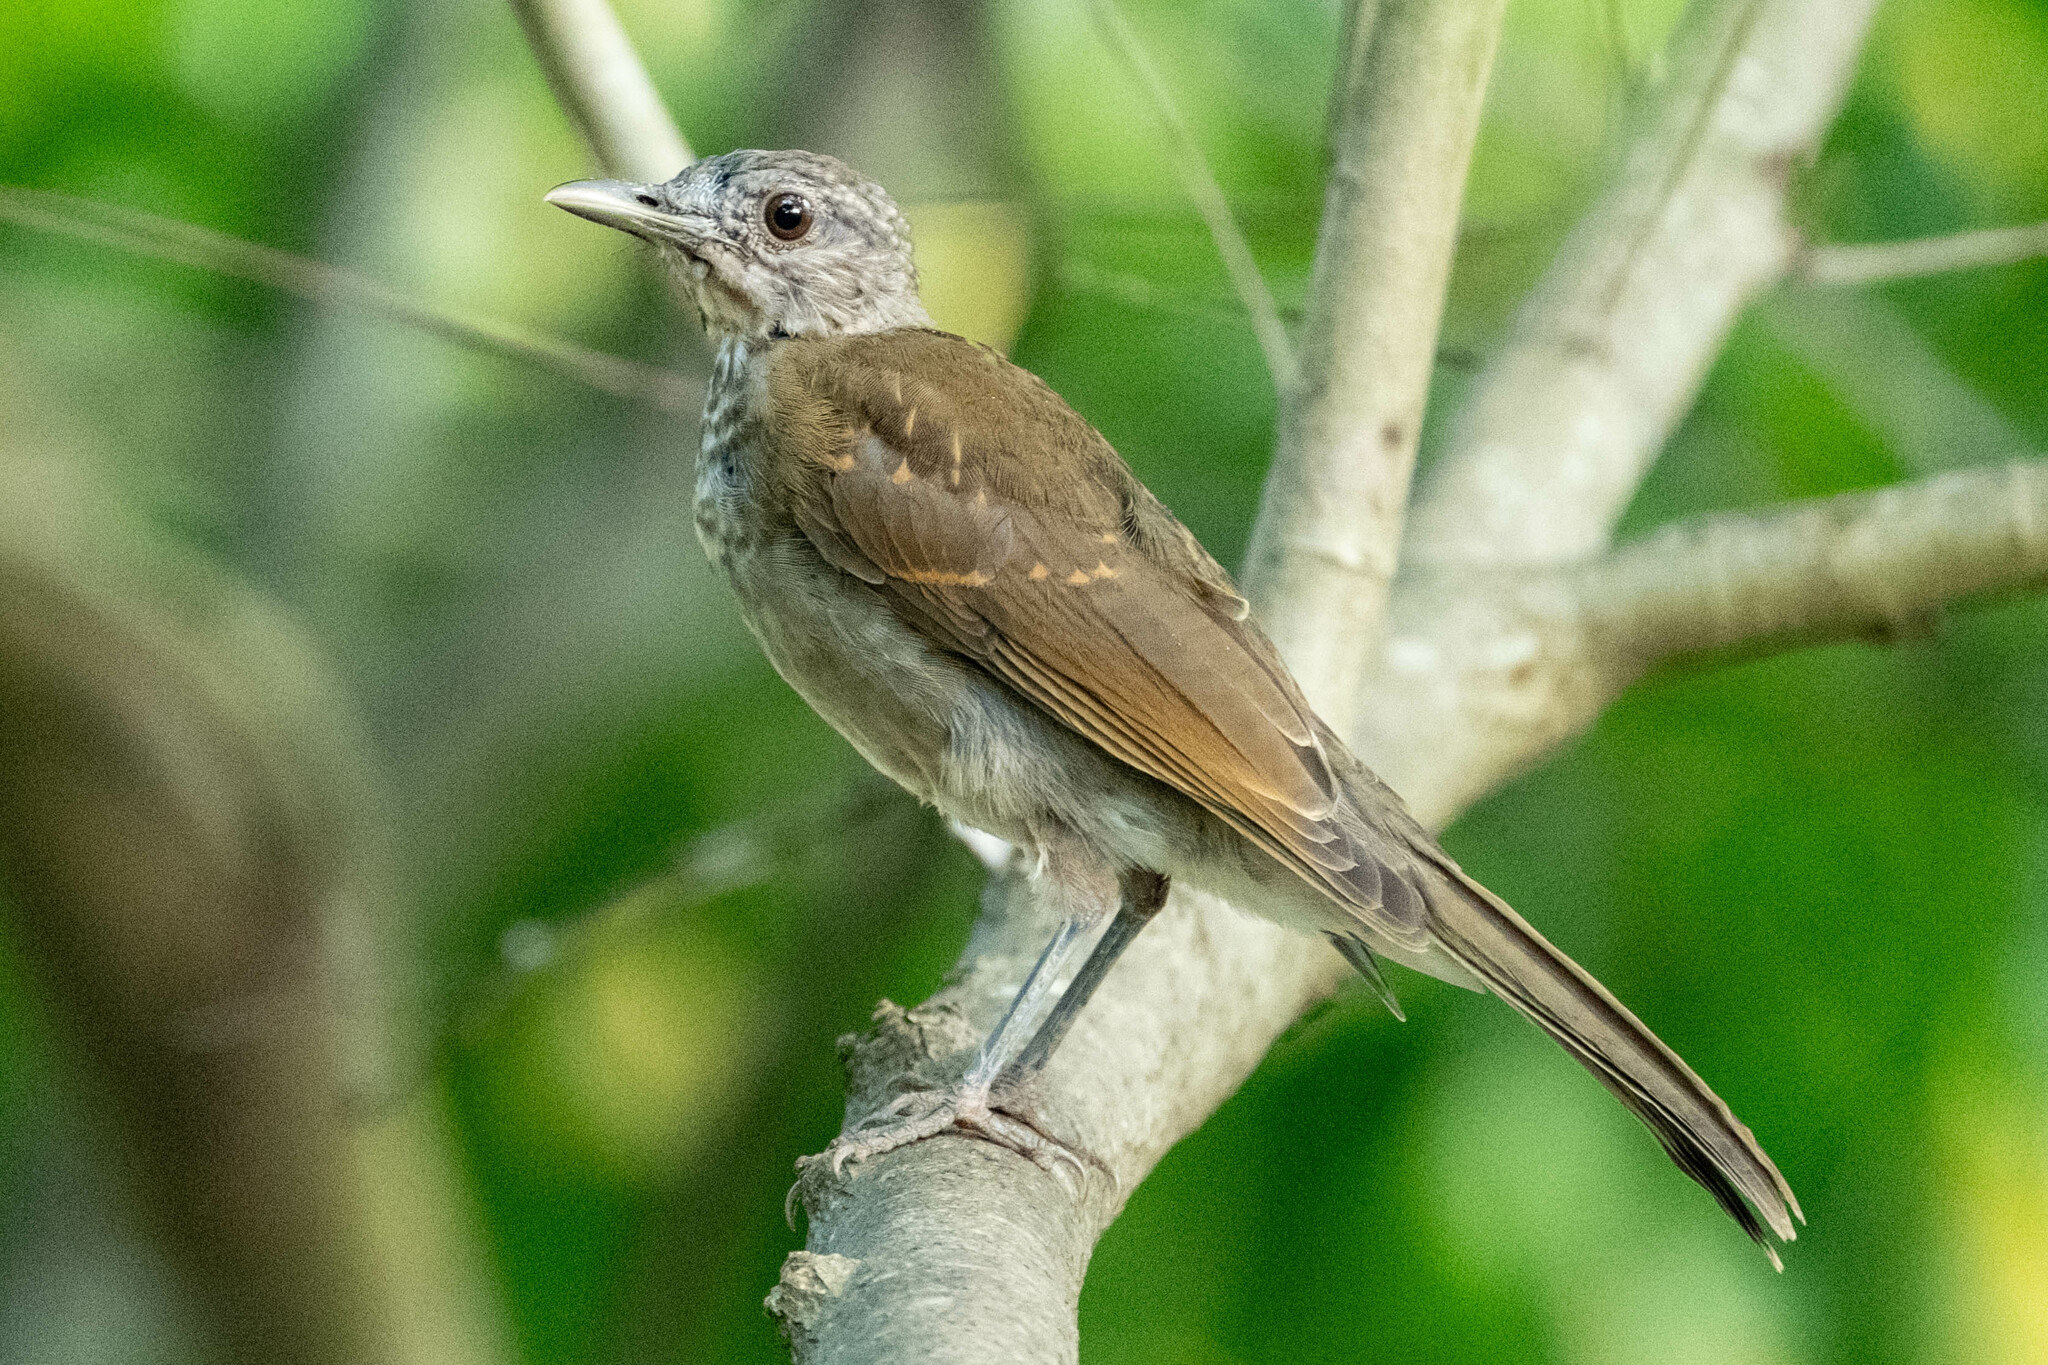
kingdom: Animalia
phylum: Chordata
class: Aves
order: Passeriformes
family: Turdidae
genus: Turdus
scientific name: Turdus leucomelas
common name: Pale-breasted thrush
